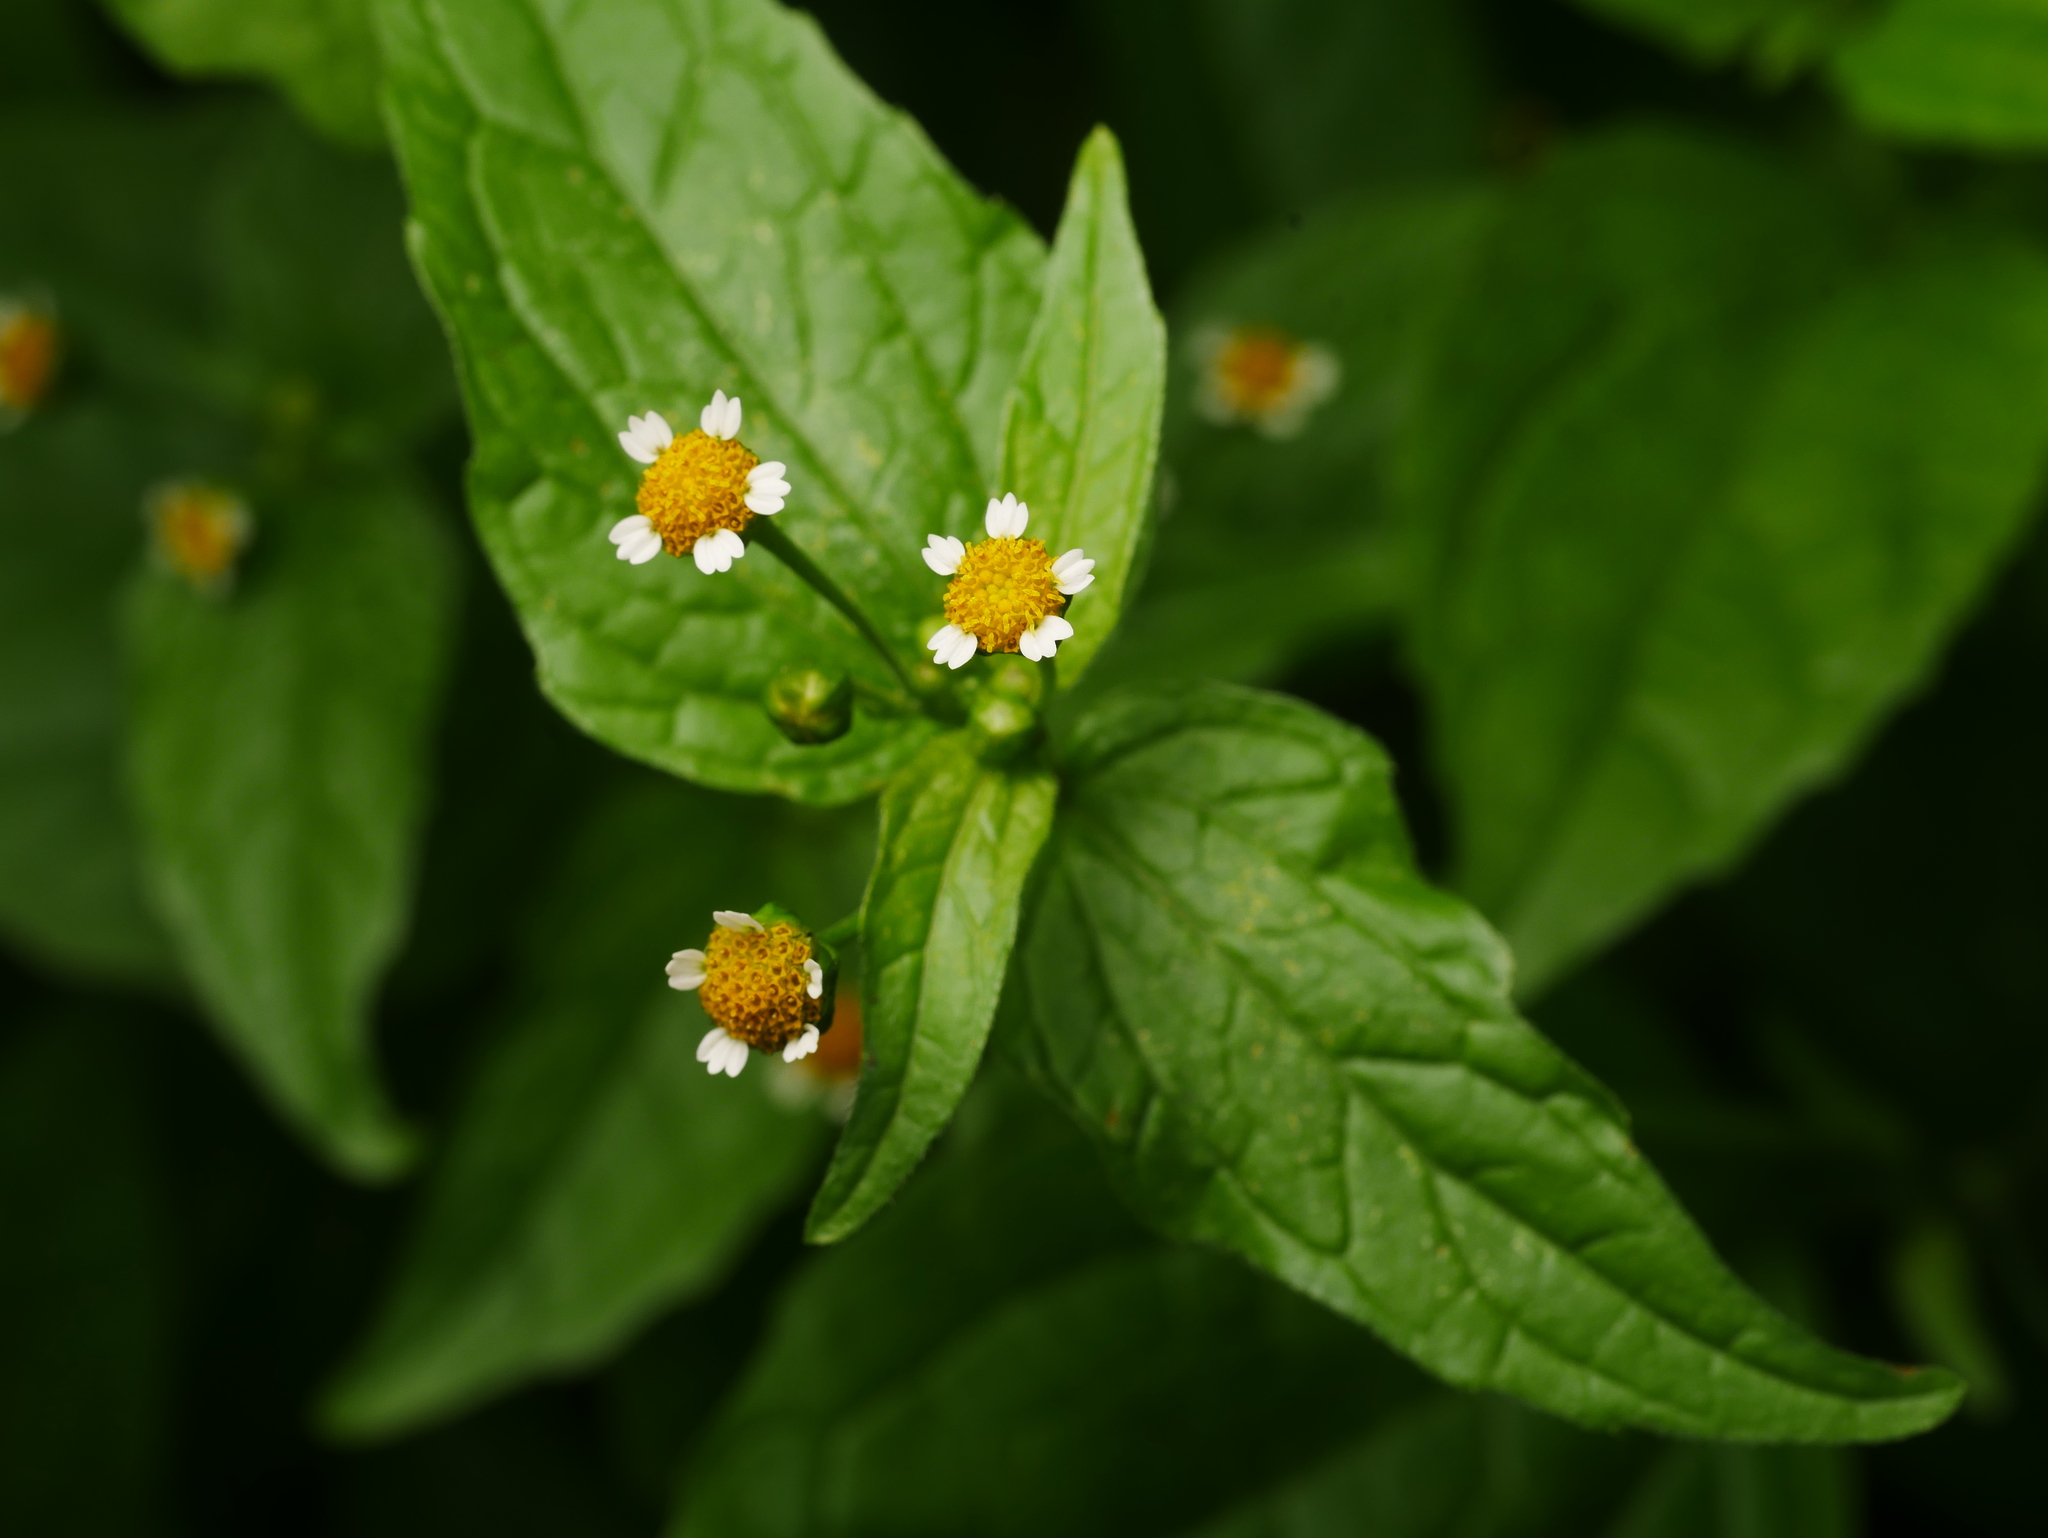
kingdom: Plantae
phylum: Tracheophyta
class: Magnoliopsida
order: Asterales
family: Asteraceae
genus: Galinsoga
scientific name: Galinsoga parviflora
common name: Gallant soldier
